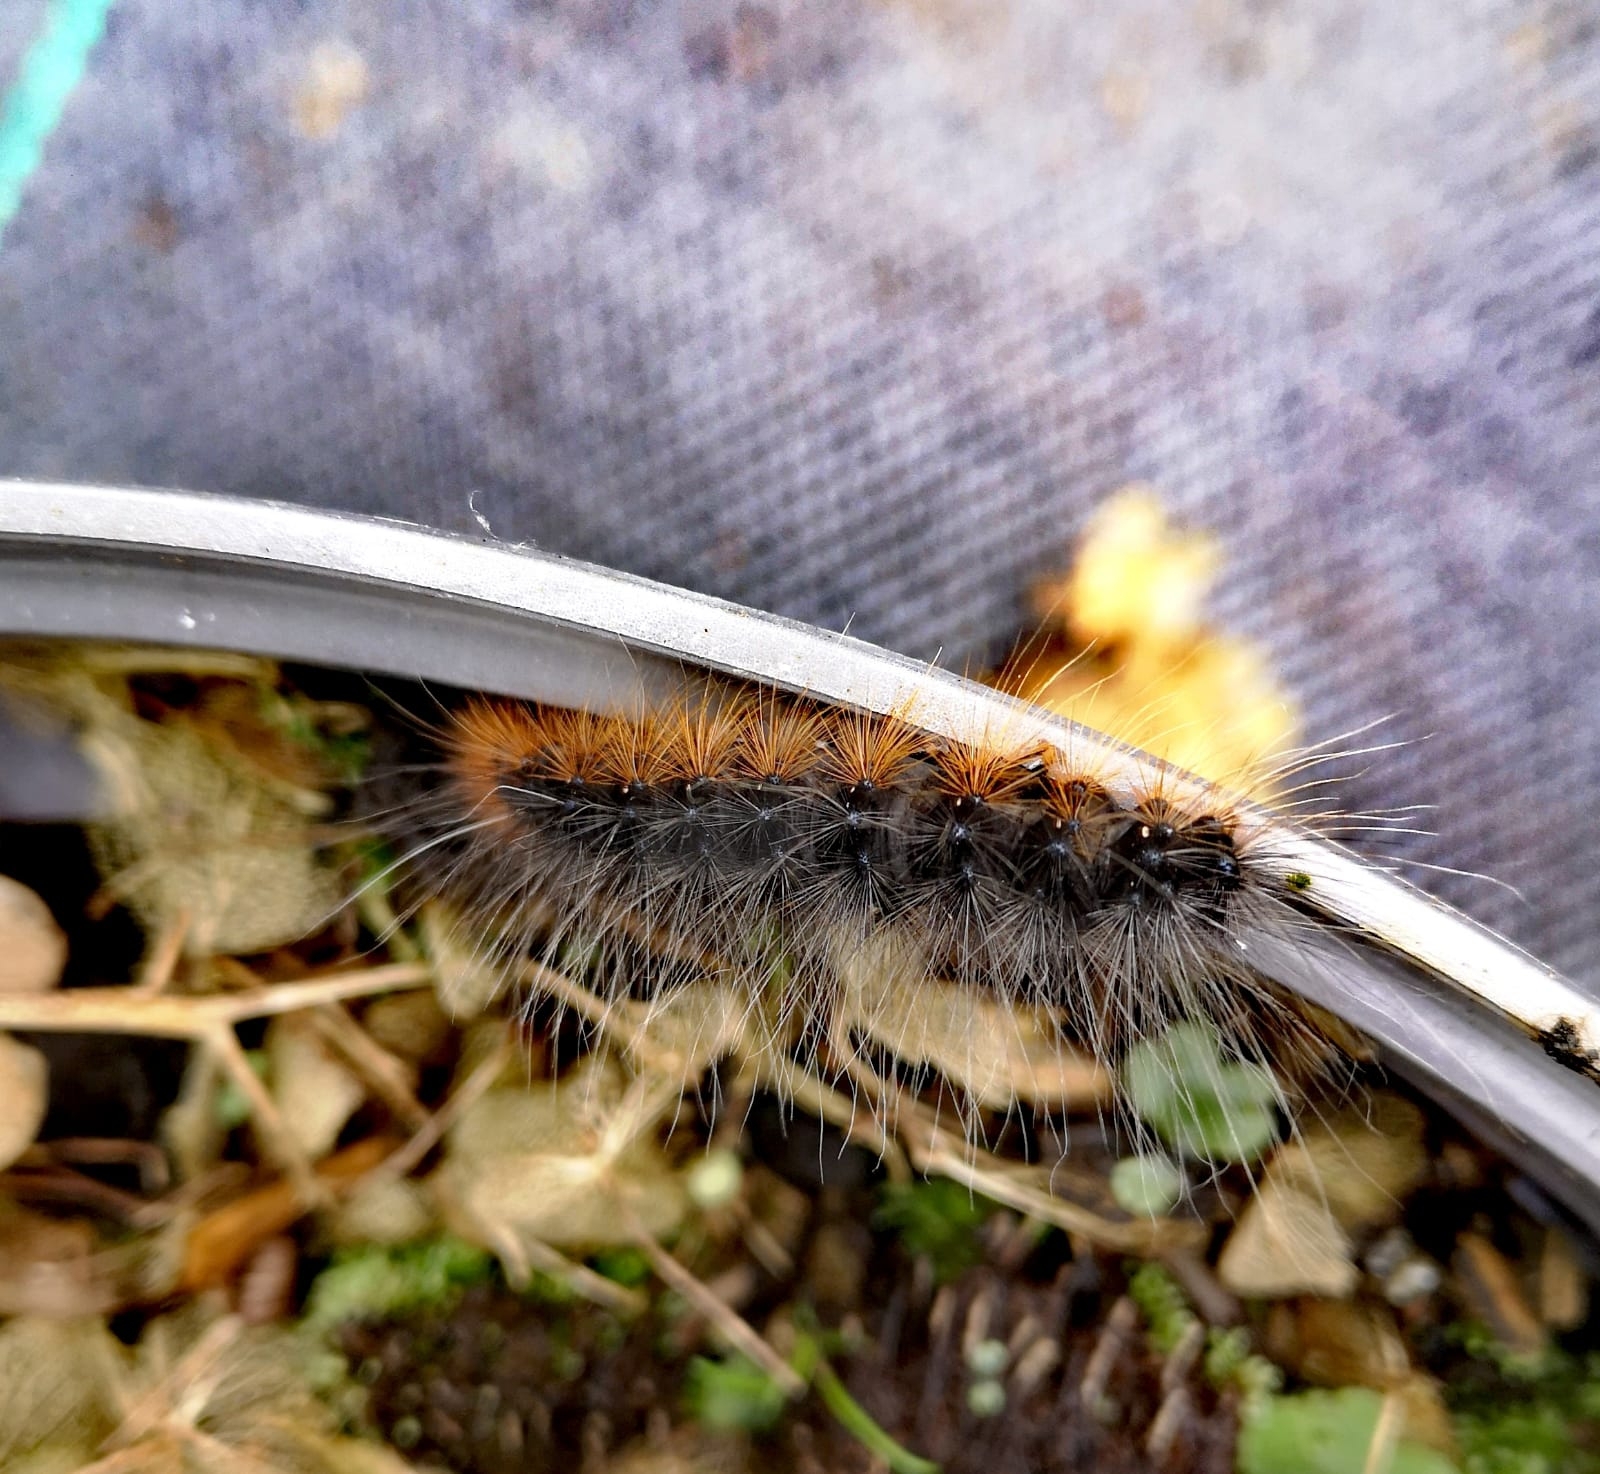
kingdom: Animalia
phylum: Arthropoda
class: Insecta
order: Lepidoptera
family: Erebidae
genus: Arctia
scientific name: Arctia caja
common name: Garden tiger
